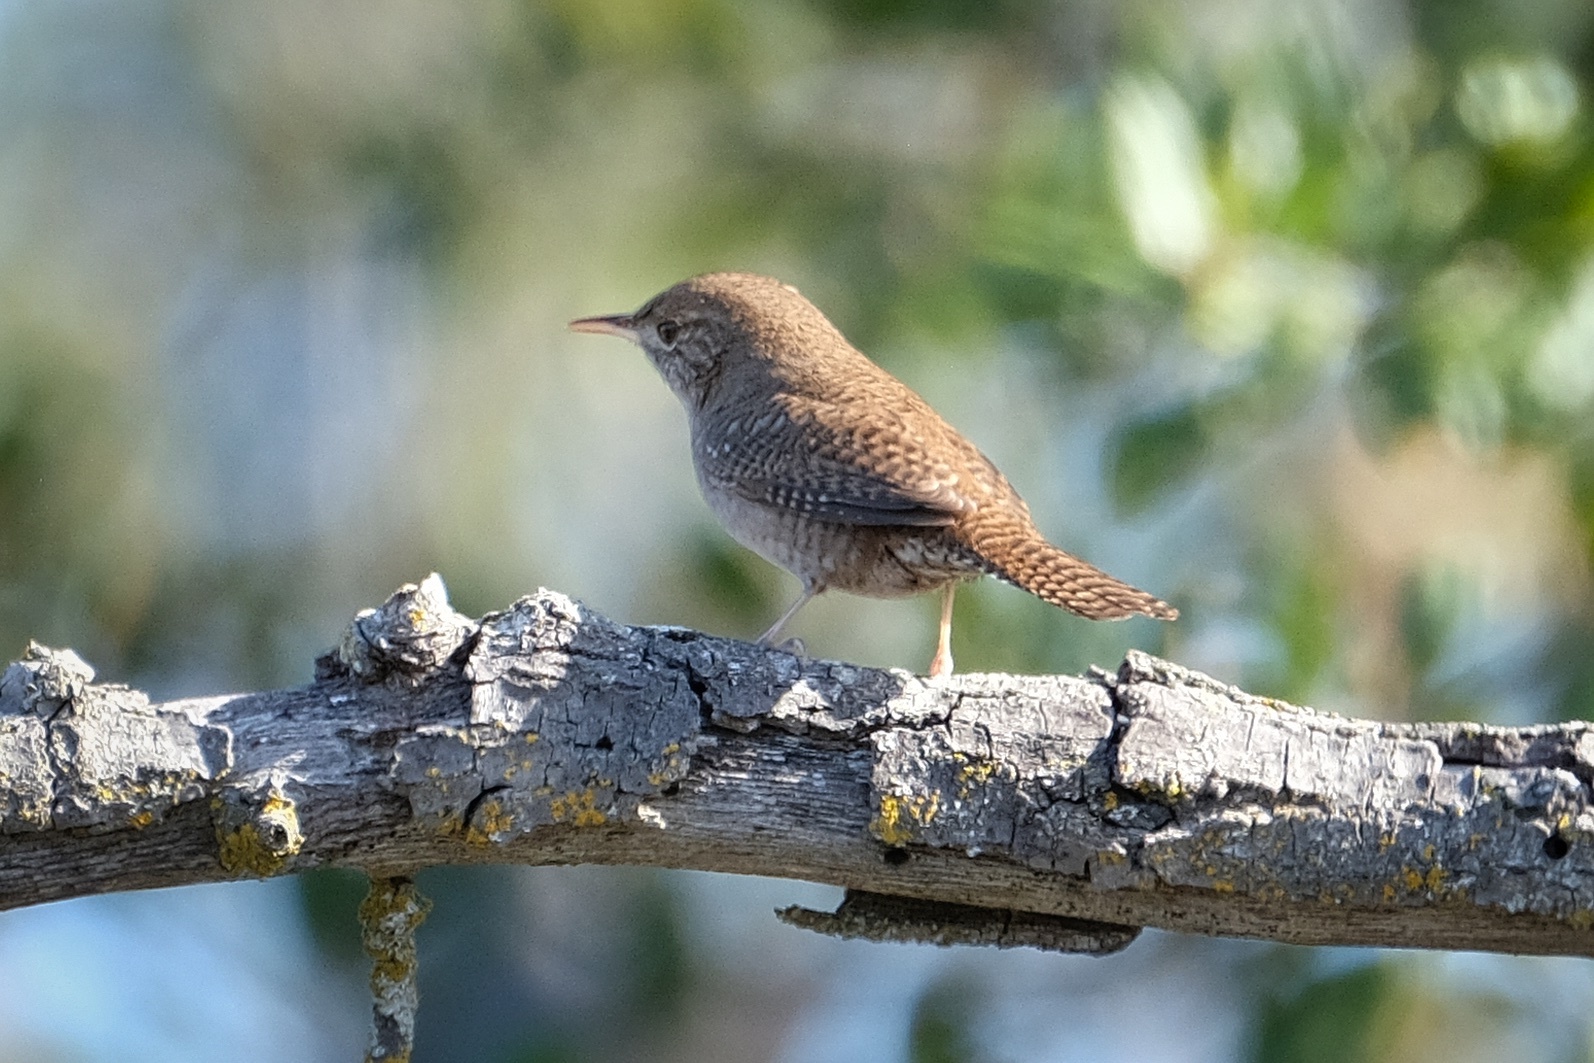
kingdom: Animalia
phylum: Chordata
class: Aves
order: Passeriformes
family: Troglodytidae
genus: Troglodytes
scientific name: Troglodytes aedon
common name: House wren
